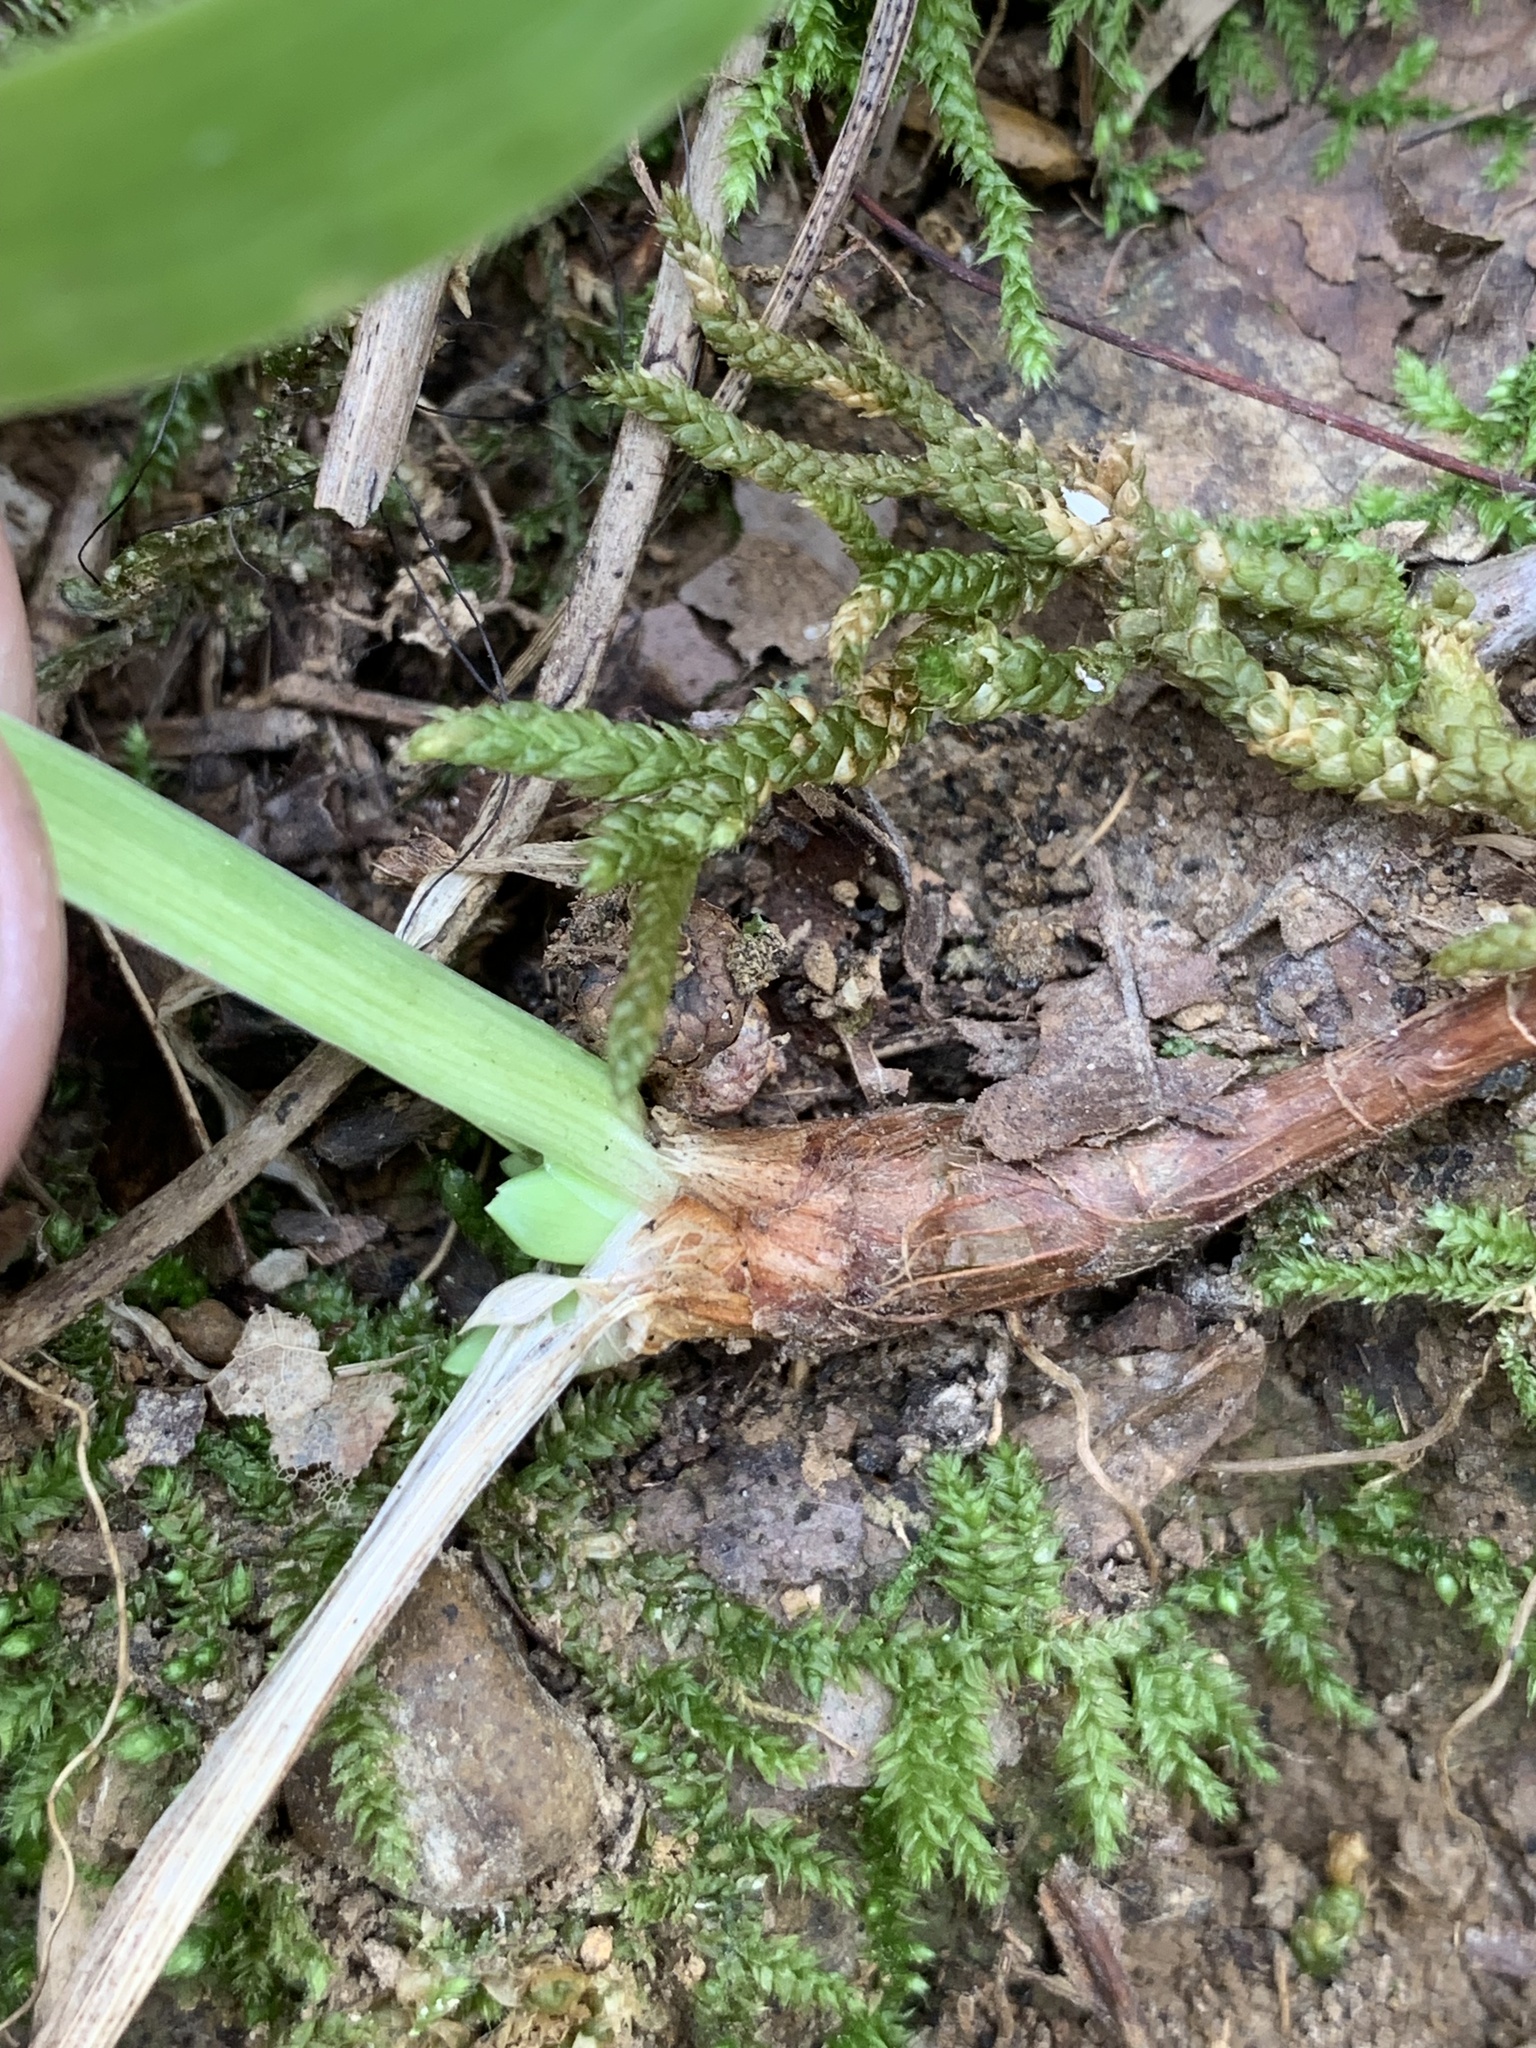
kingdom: Plantae
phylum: Tracheophyta
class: Liliopsida
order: Asparagales
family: Iridaceae
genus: Iris
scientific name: Iris cristata
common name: Crested iris
